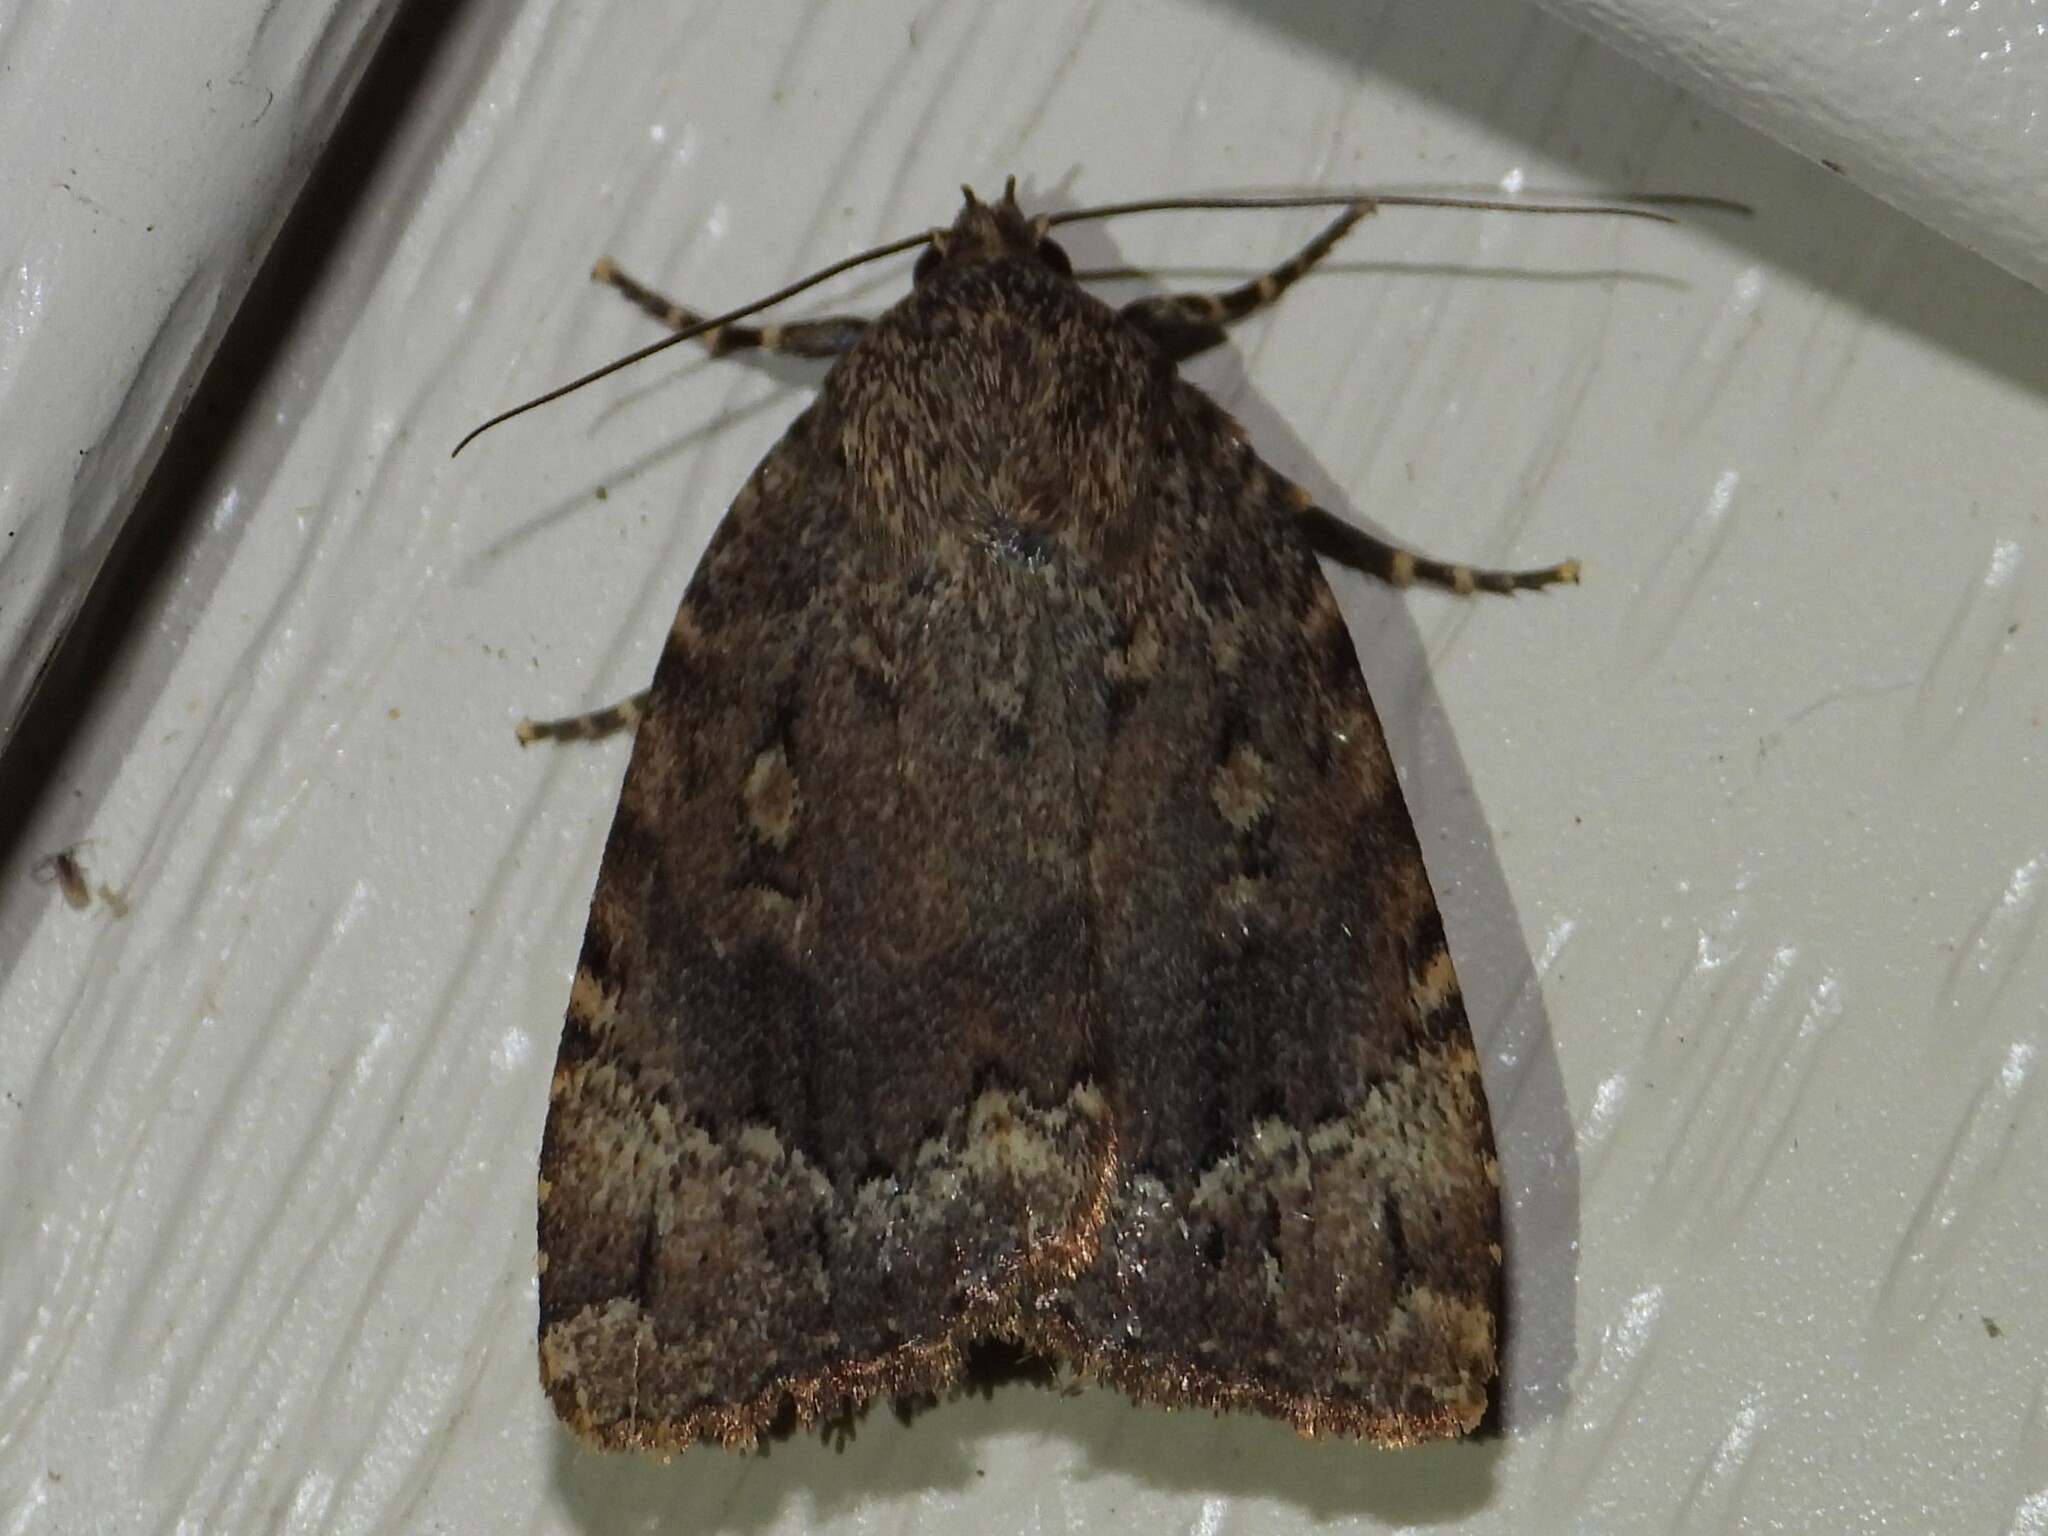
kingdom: Animalia
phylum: Arthropoda
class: Insecta
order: Lepidoptera
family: Noctuidae
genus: Amphipyra
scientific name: Amphipyra pyramidoides
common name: American copper underwing
